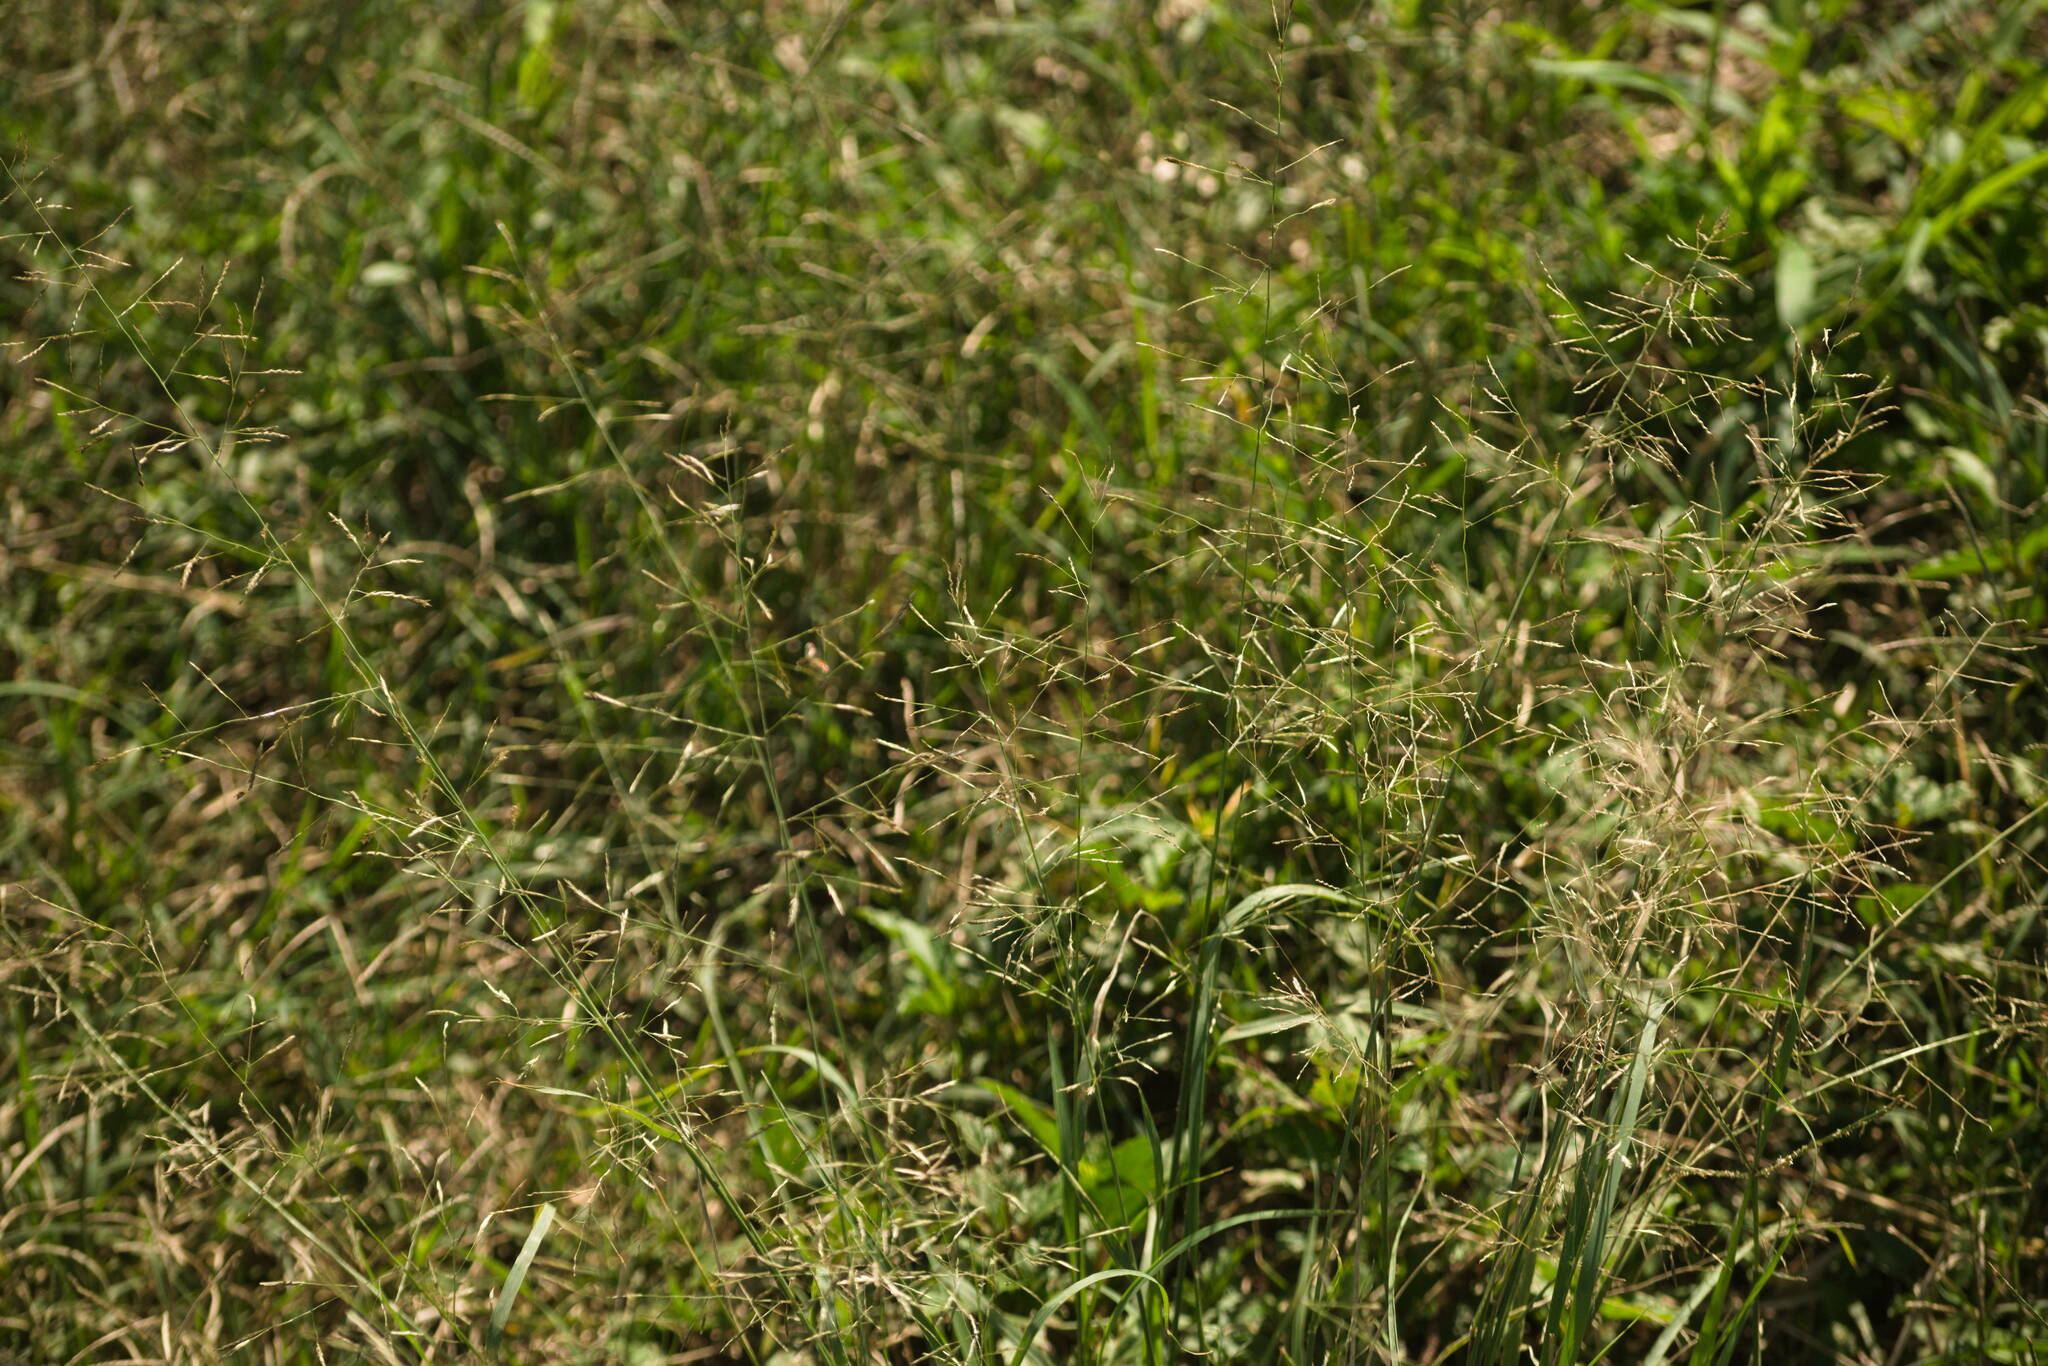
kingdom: Plantae
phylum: Tracheophyta
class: Liliopsida
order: Poales
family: Poaceae
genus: Eragrostis
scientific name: Eragrostis tenuifolia
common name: Elastic grass
